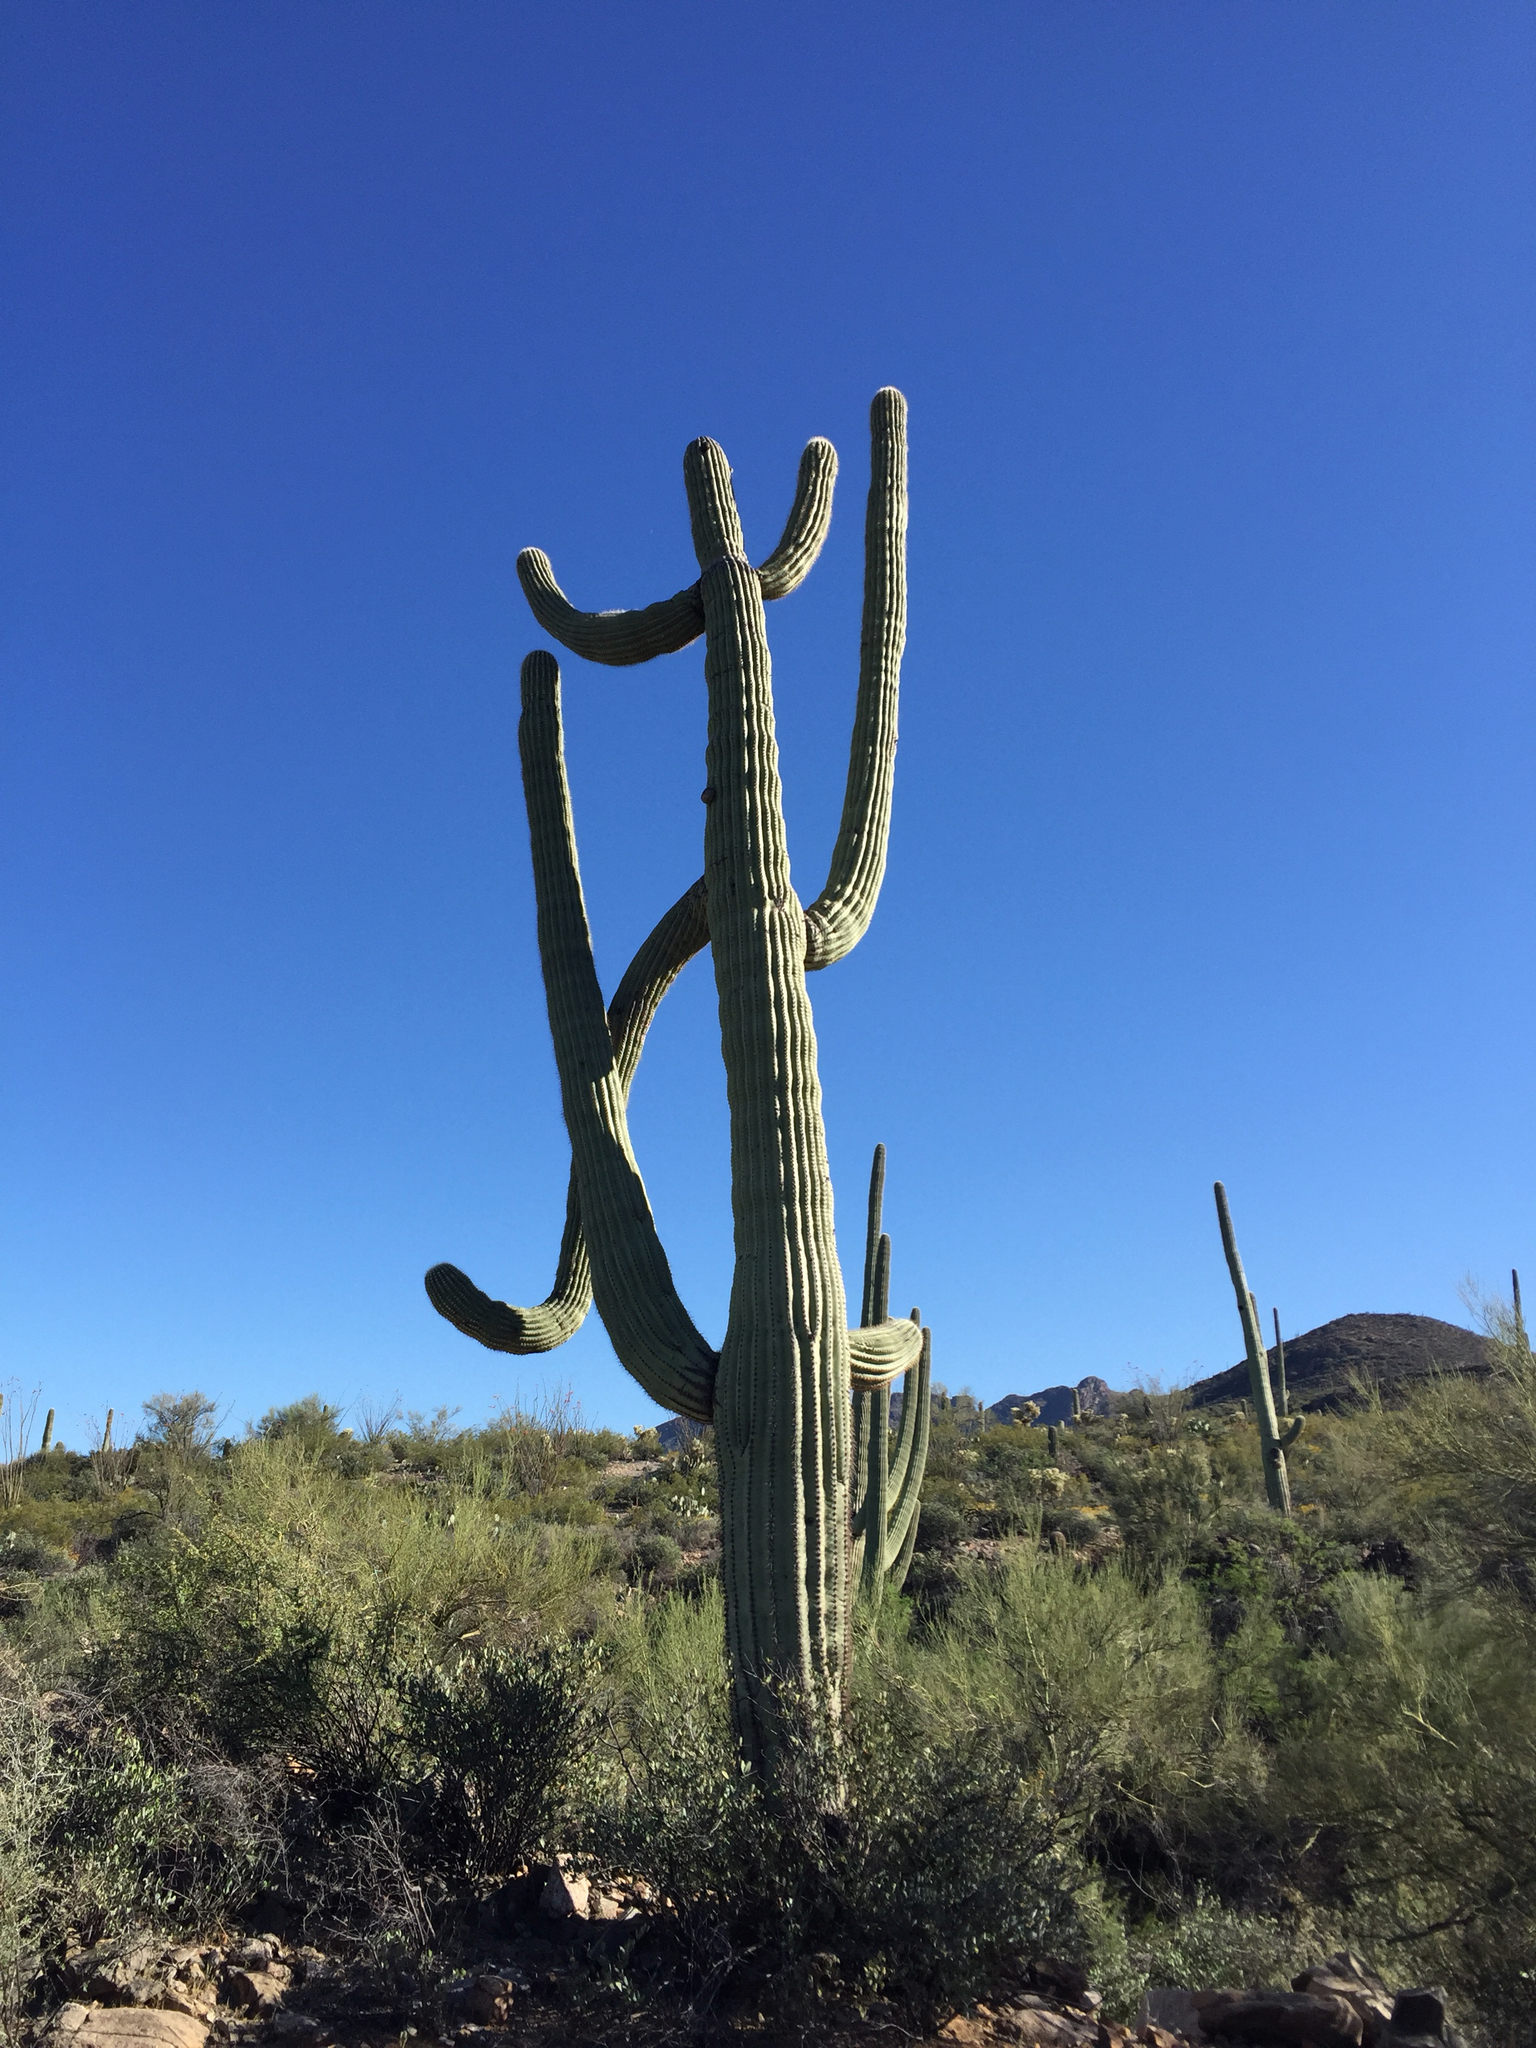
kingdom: Plantae
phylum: Tracheophyta
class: Magnoliopsida
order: Caryophyllales
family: Cactaceae
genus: Carnegiea
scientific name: Carnegiea gigantea
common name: Saguaro
